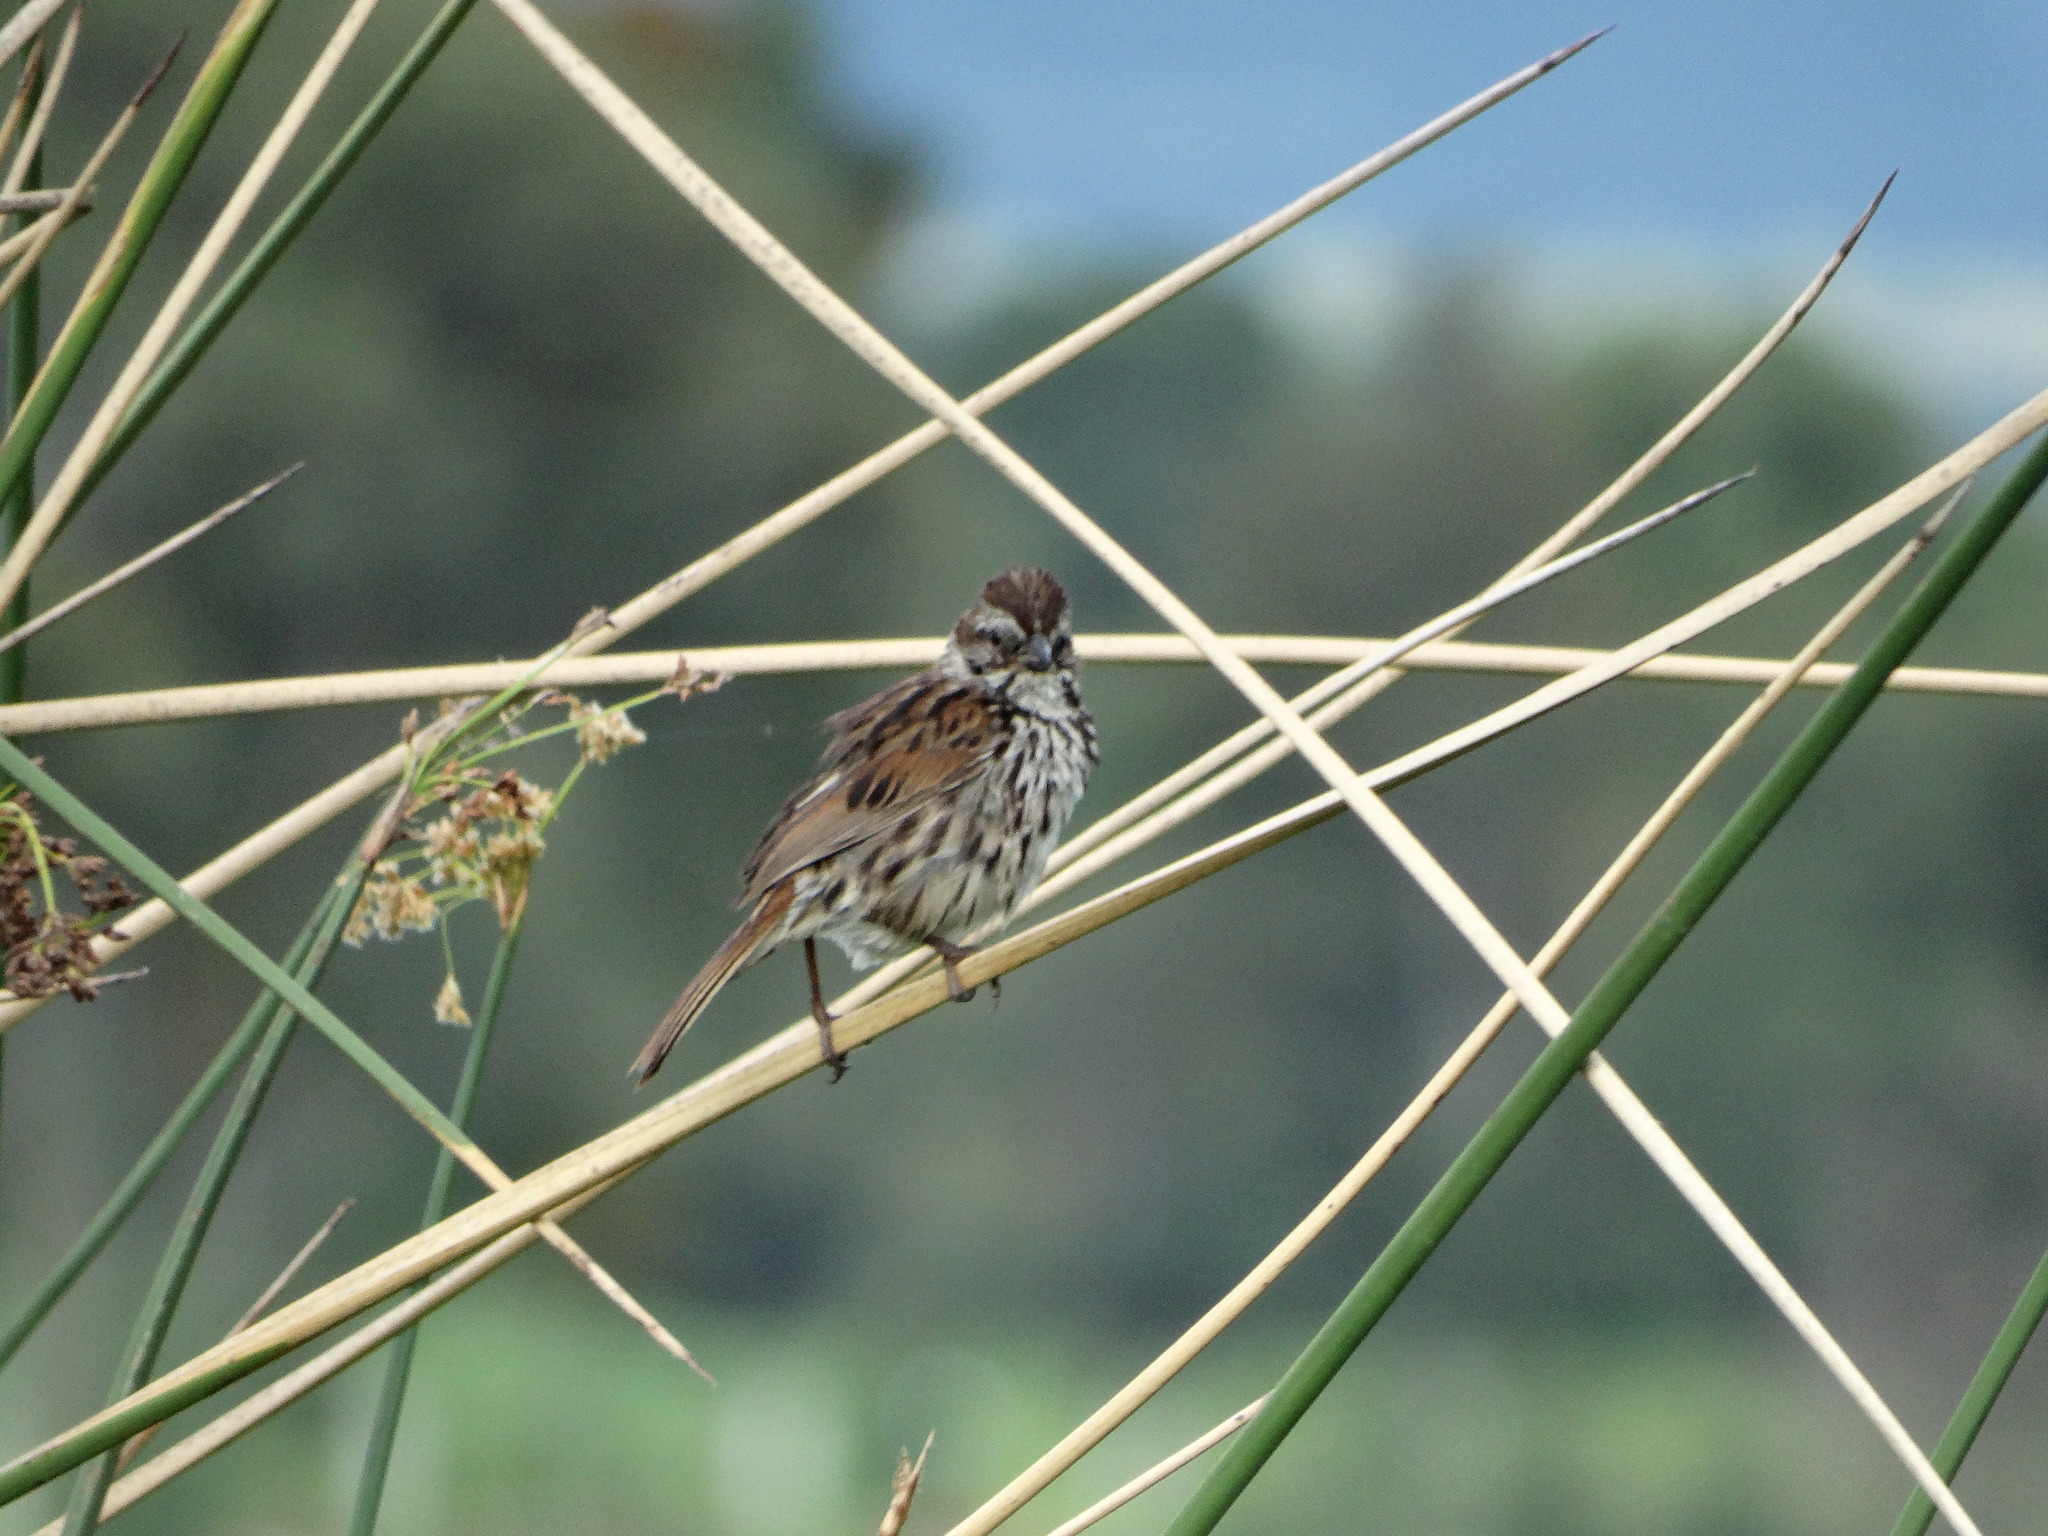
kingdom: Animalia
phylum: Chordata
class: Aves
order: Passeriformes
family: Passerellidae
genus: Melospiza
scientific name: Melospiza melodia
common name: Song sparrow
